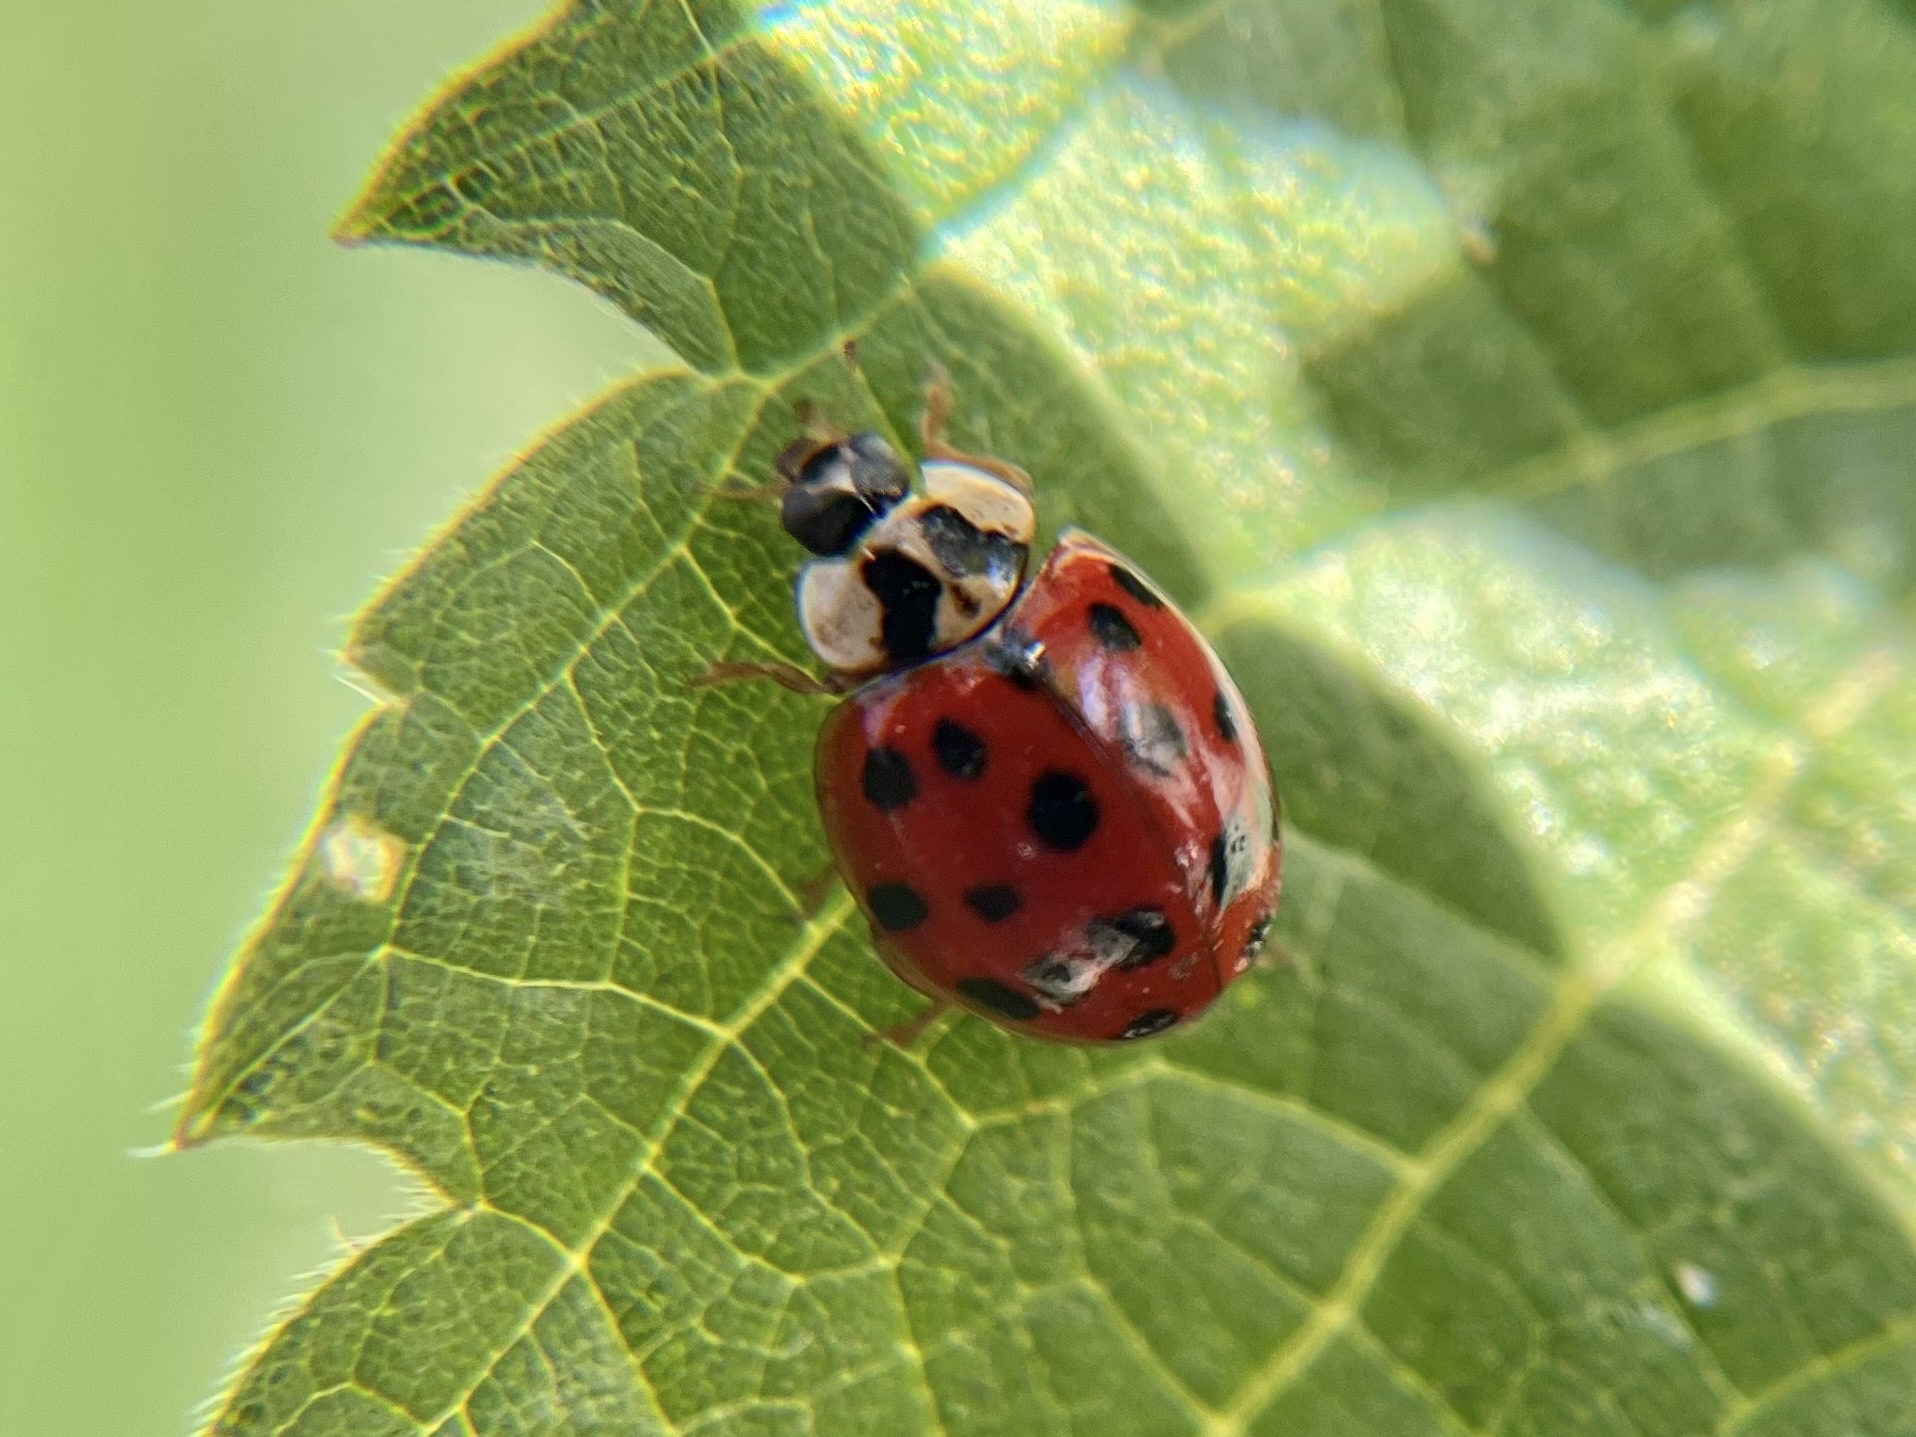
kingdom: Animalia
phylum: Arthropoda
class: Insecta
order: Coleoptera
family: Coccinellidae
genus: Harmonia
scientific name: Harmonia axyridis
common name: Harlequin ladybird
